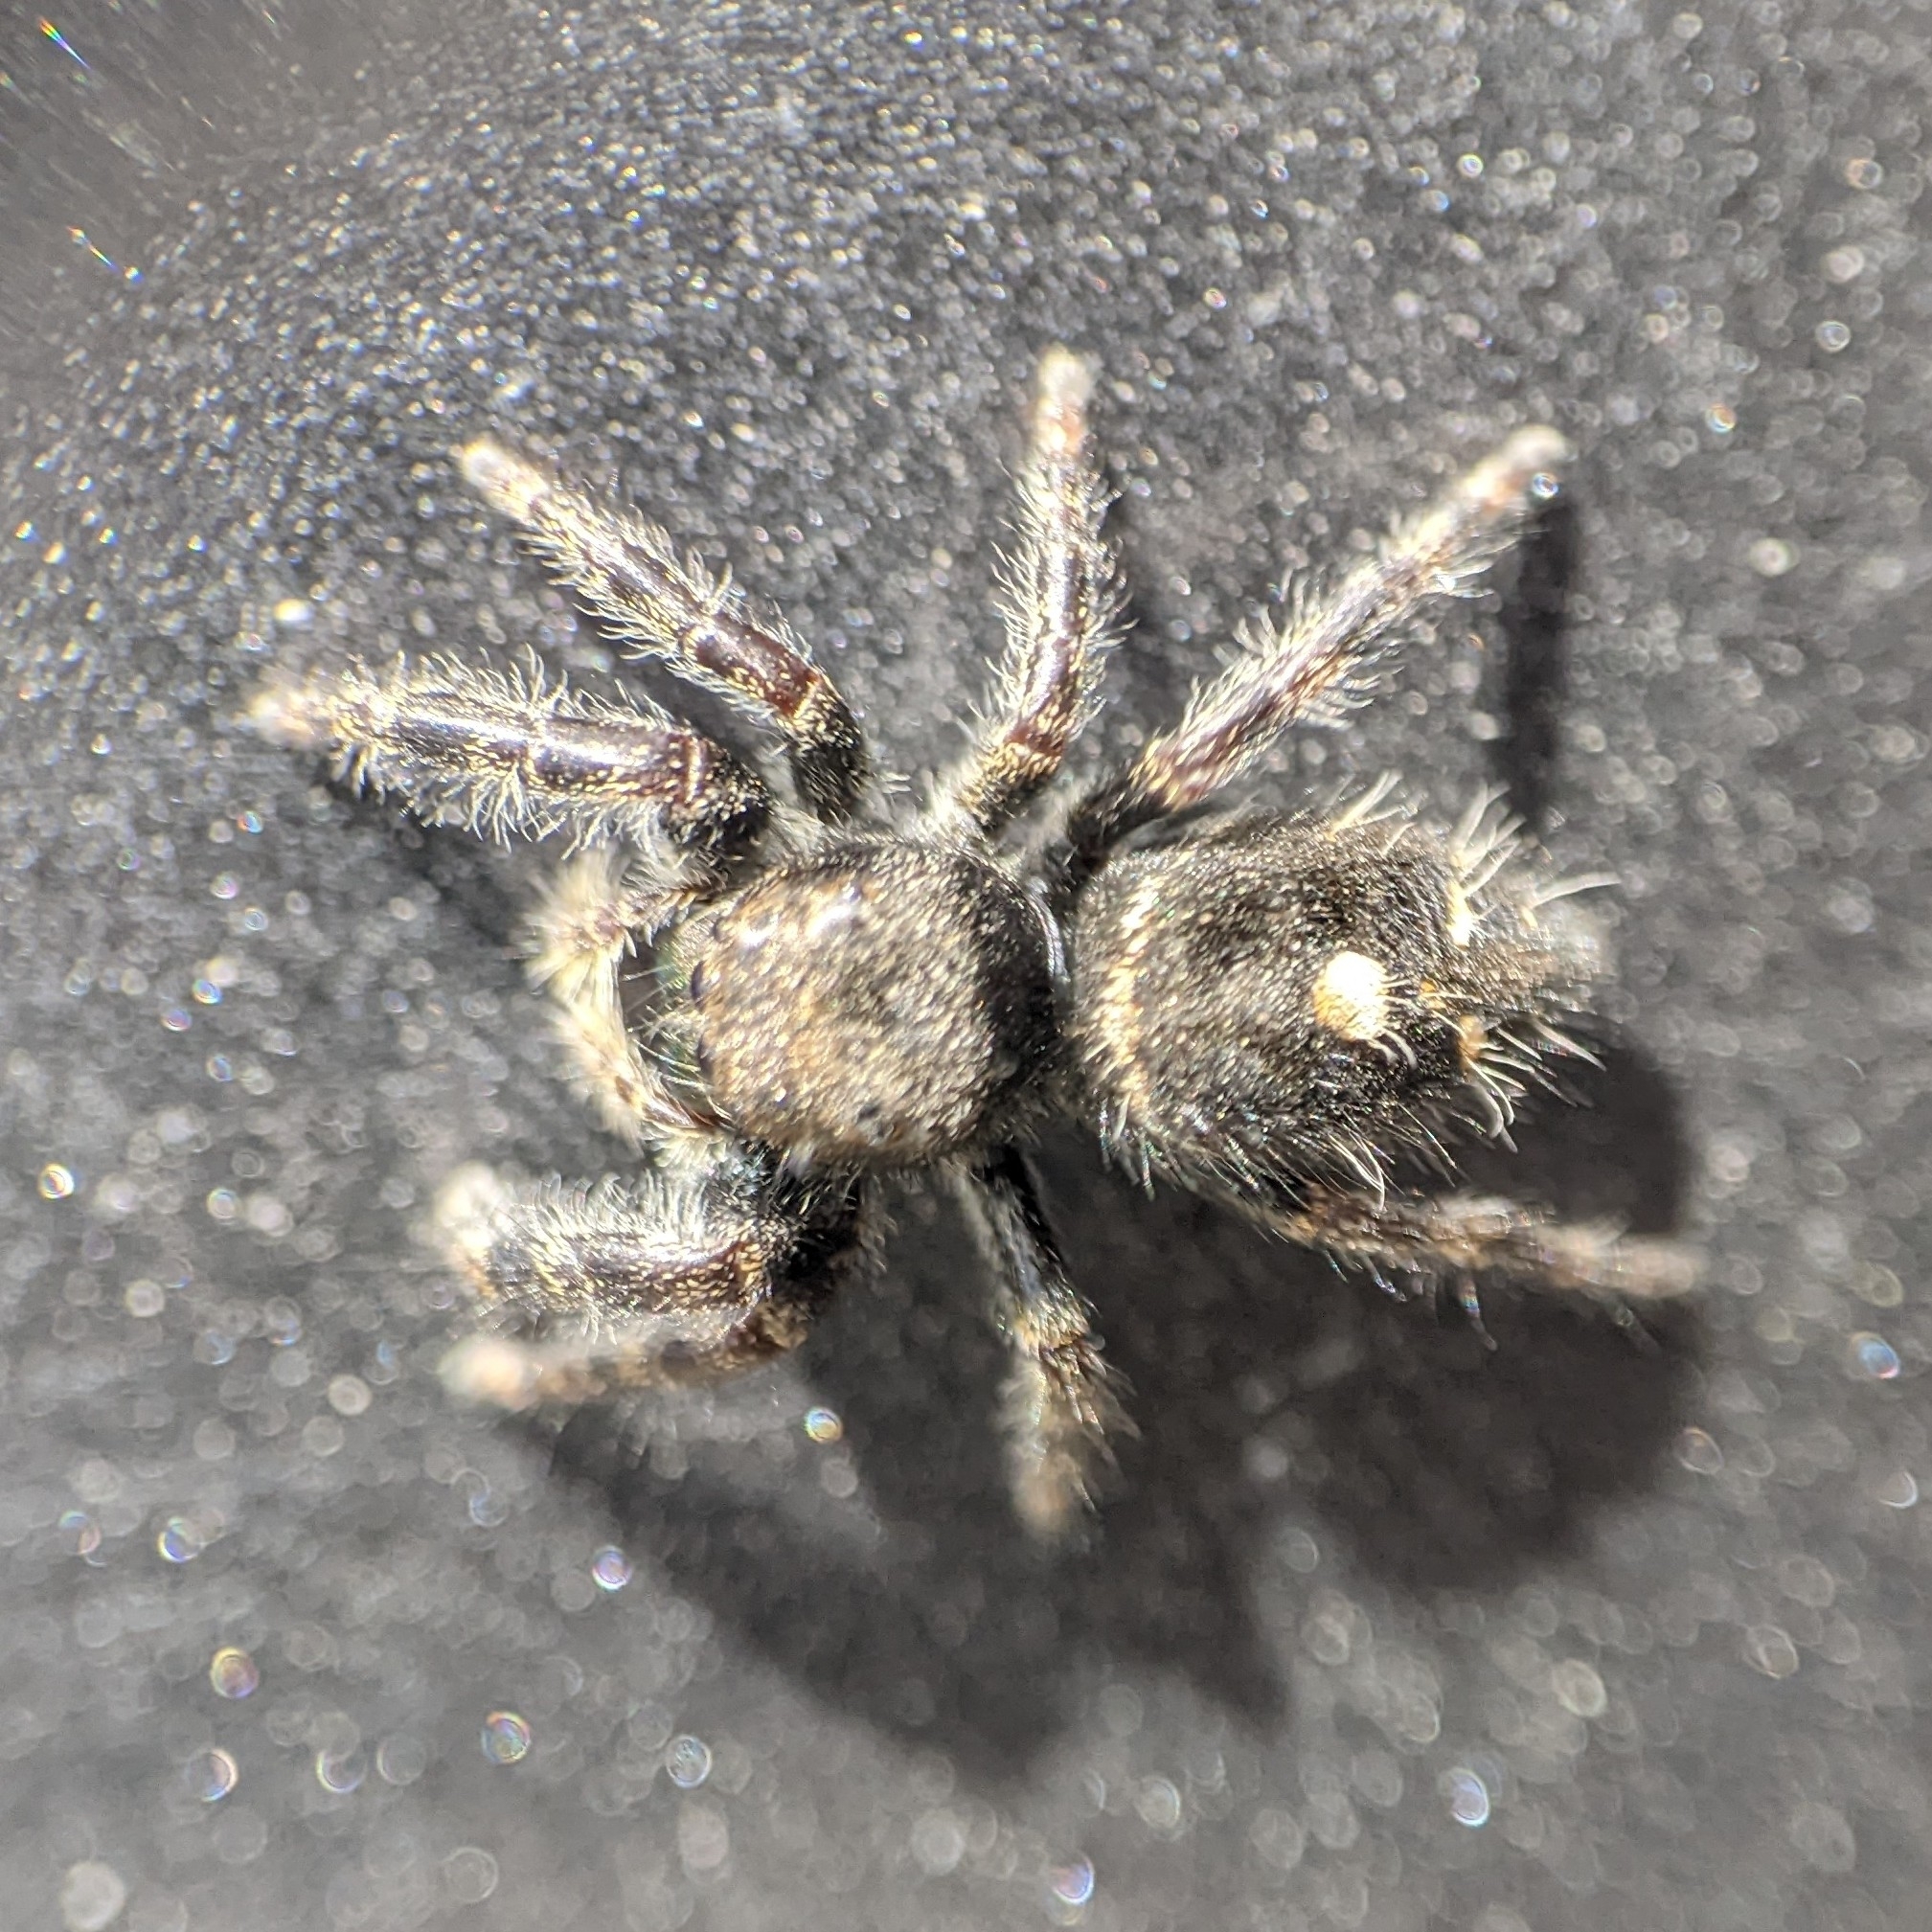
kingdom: Animalia
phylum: Arthropoda
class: Arachnida
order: Araneae
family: Salticidae
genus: Phidippus
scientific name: Phidippus audax
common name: Bold jumper
